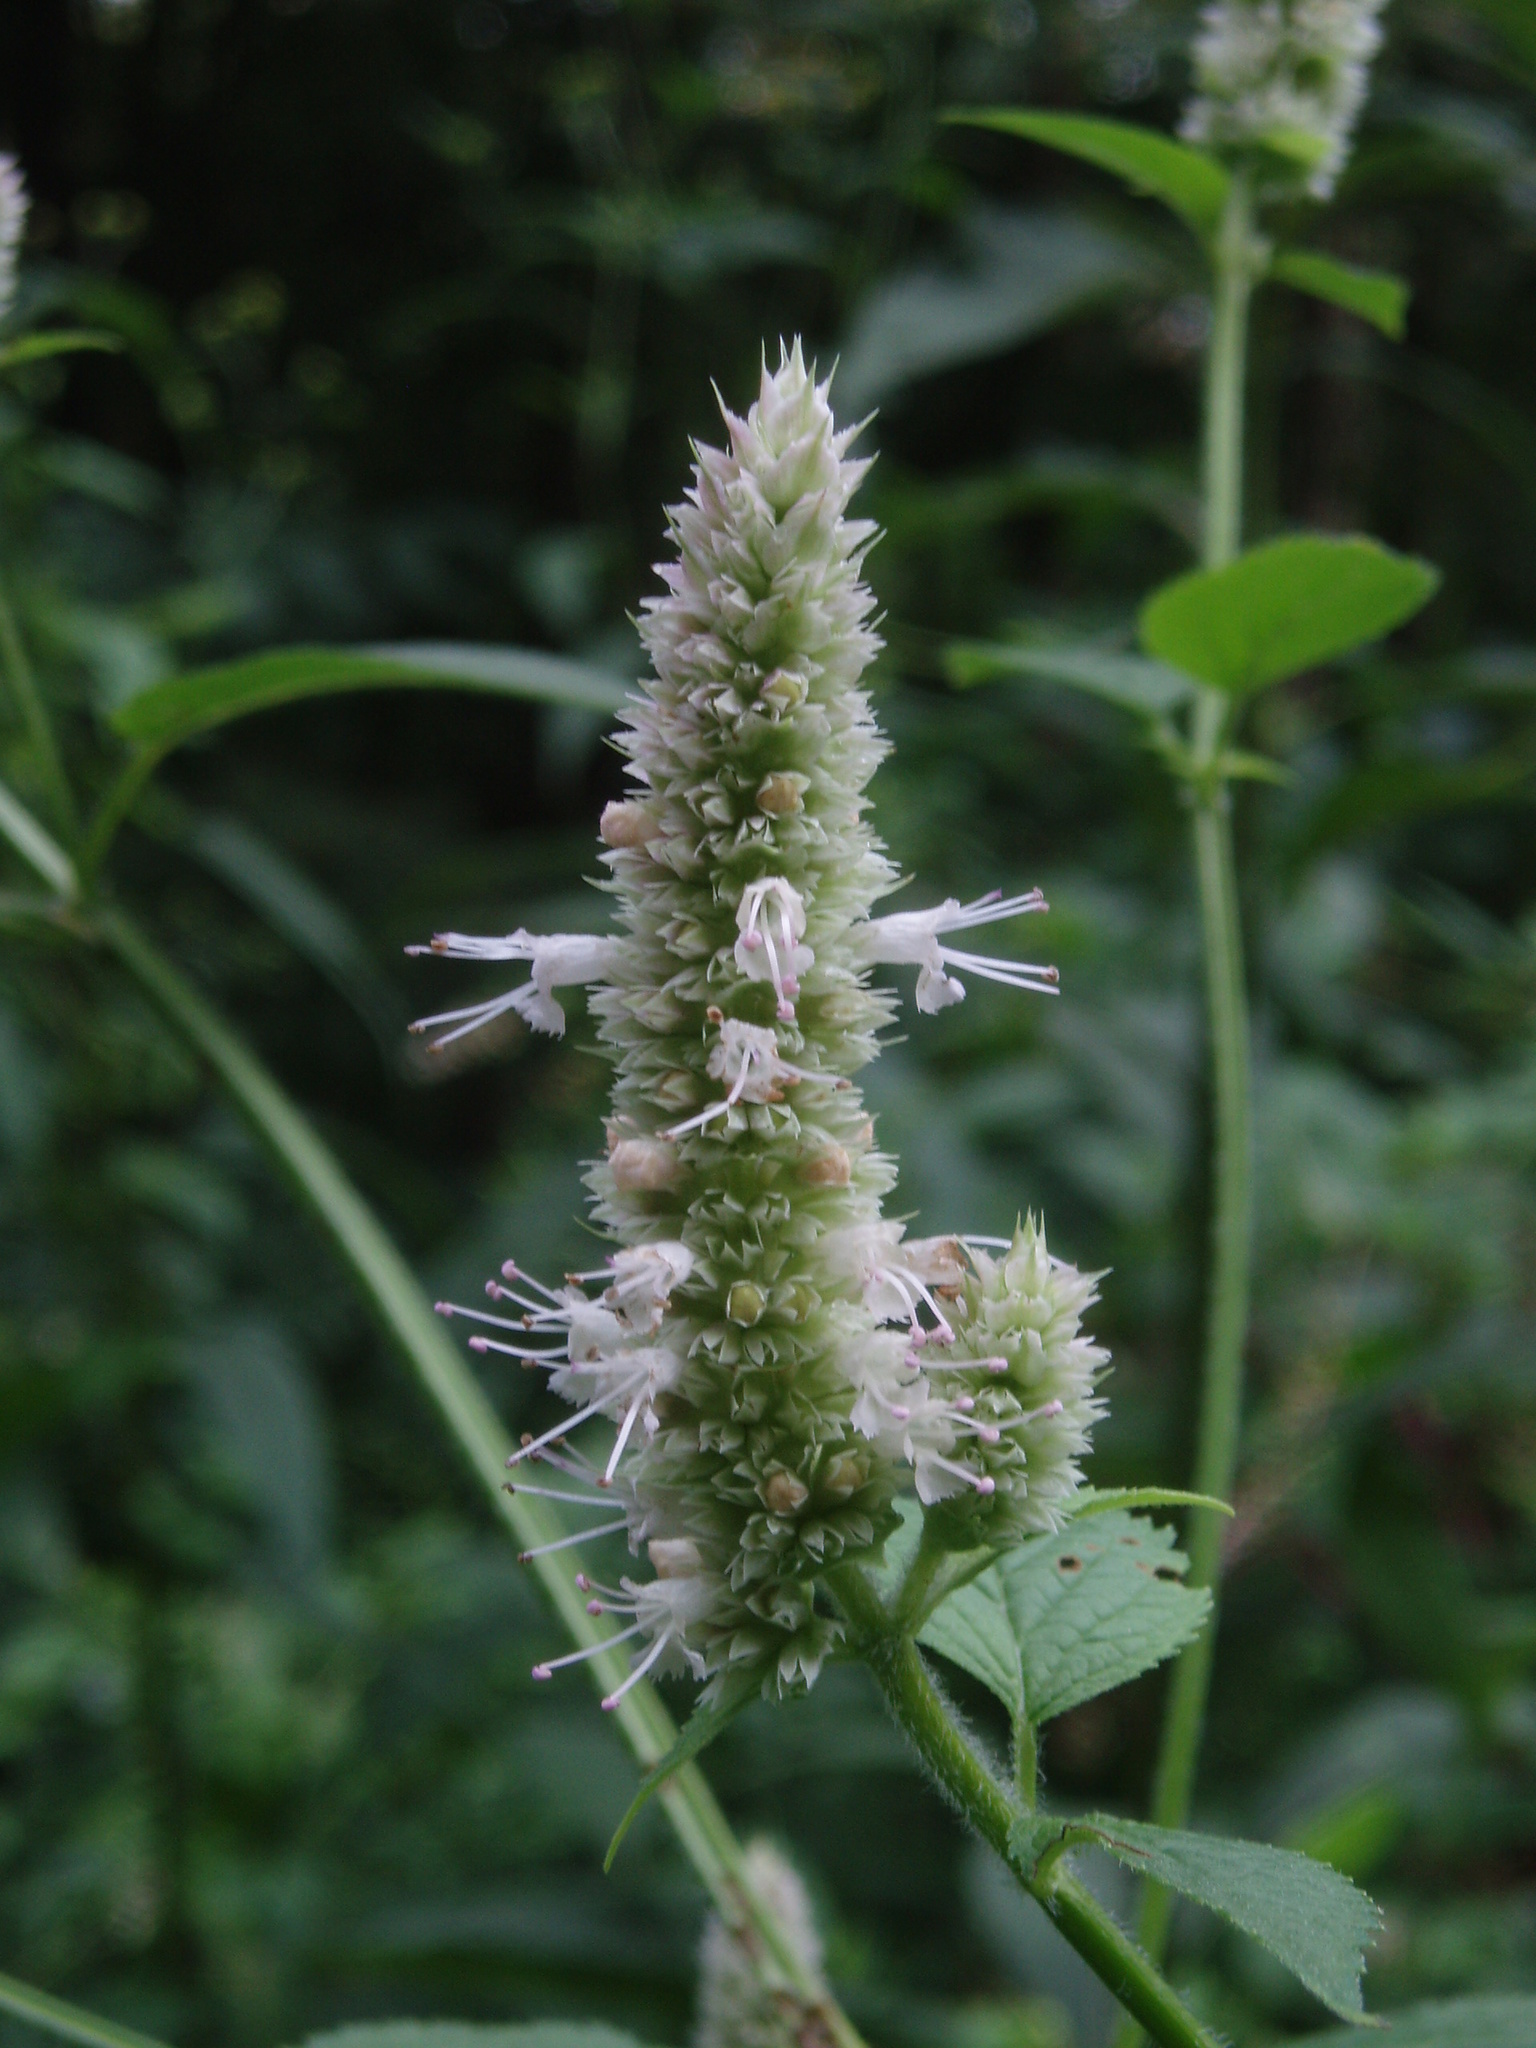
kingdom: Plantae
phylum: Tracheophyta
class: Magnoliopsida
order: Lamiales
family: Lamiaceae
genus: Agastache
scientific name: Agastache scrophulariifolia
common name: Figwort giant hyssop
